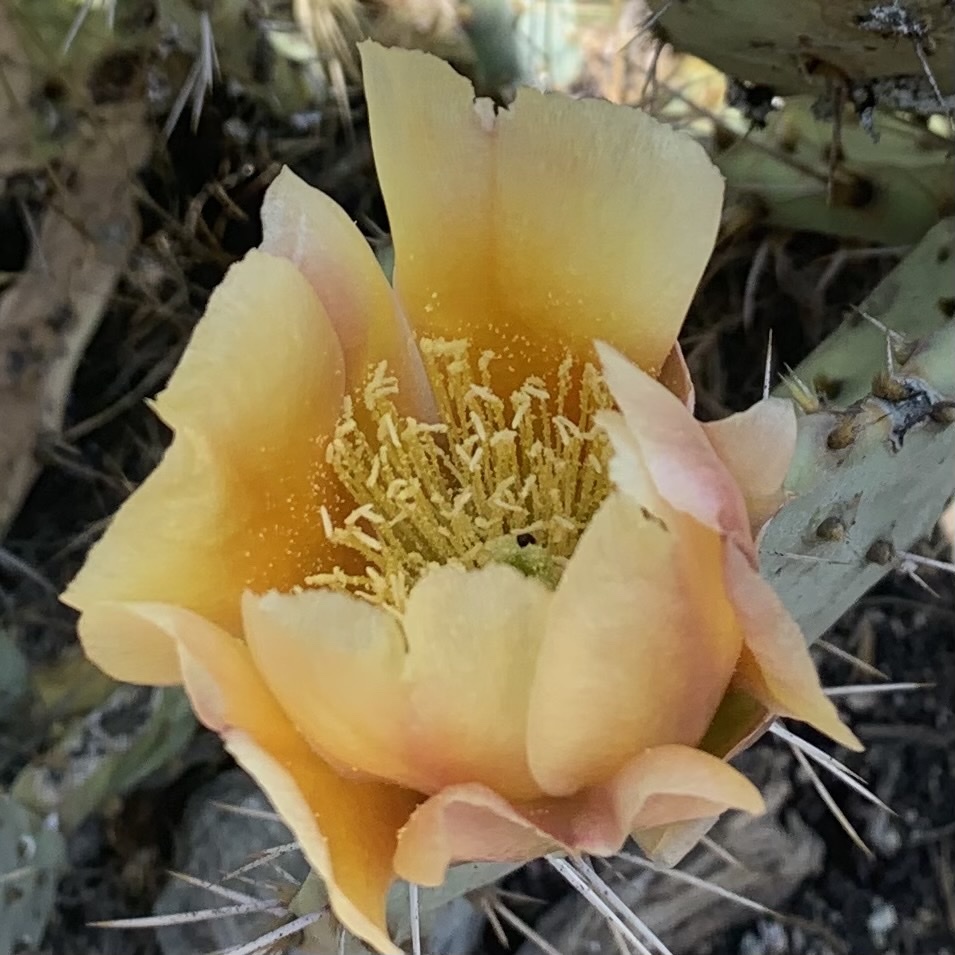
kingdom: Plantae
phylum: Tracheophyta
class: Magnoliopsida
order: Caryophyllales
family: Cactaceae
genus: Opuntia
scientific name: Opuntia littoralis
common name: Coastal prickly-pear
